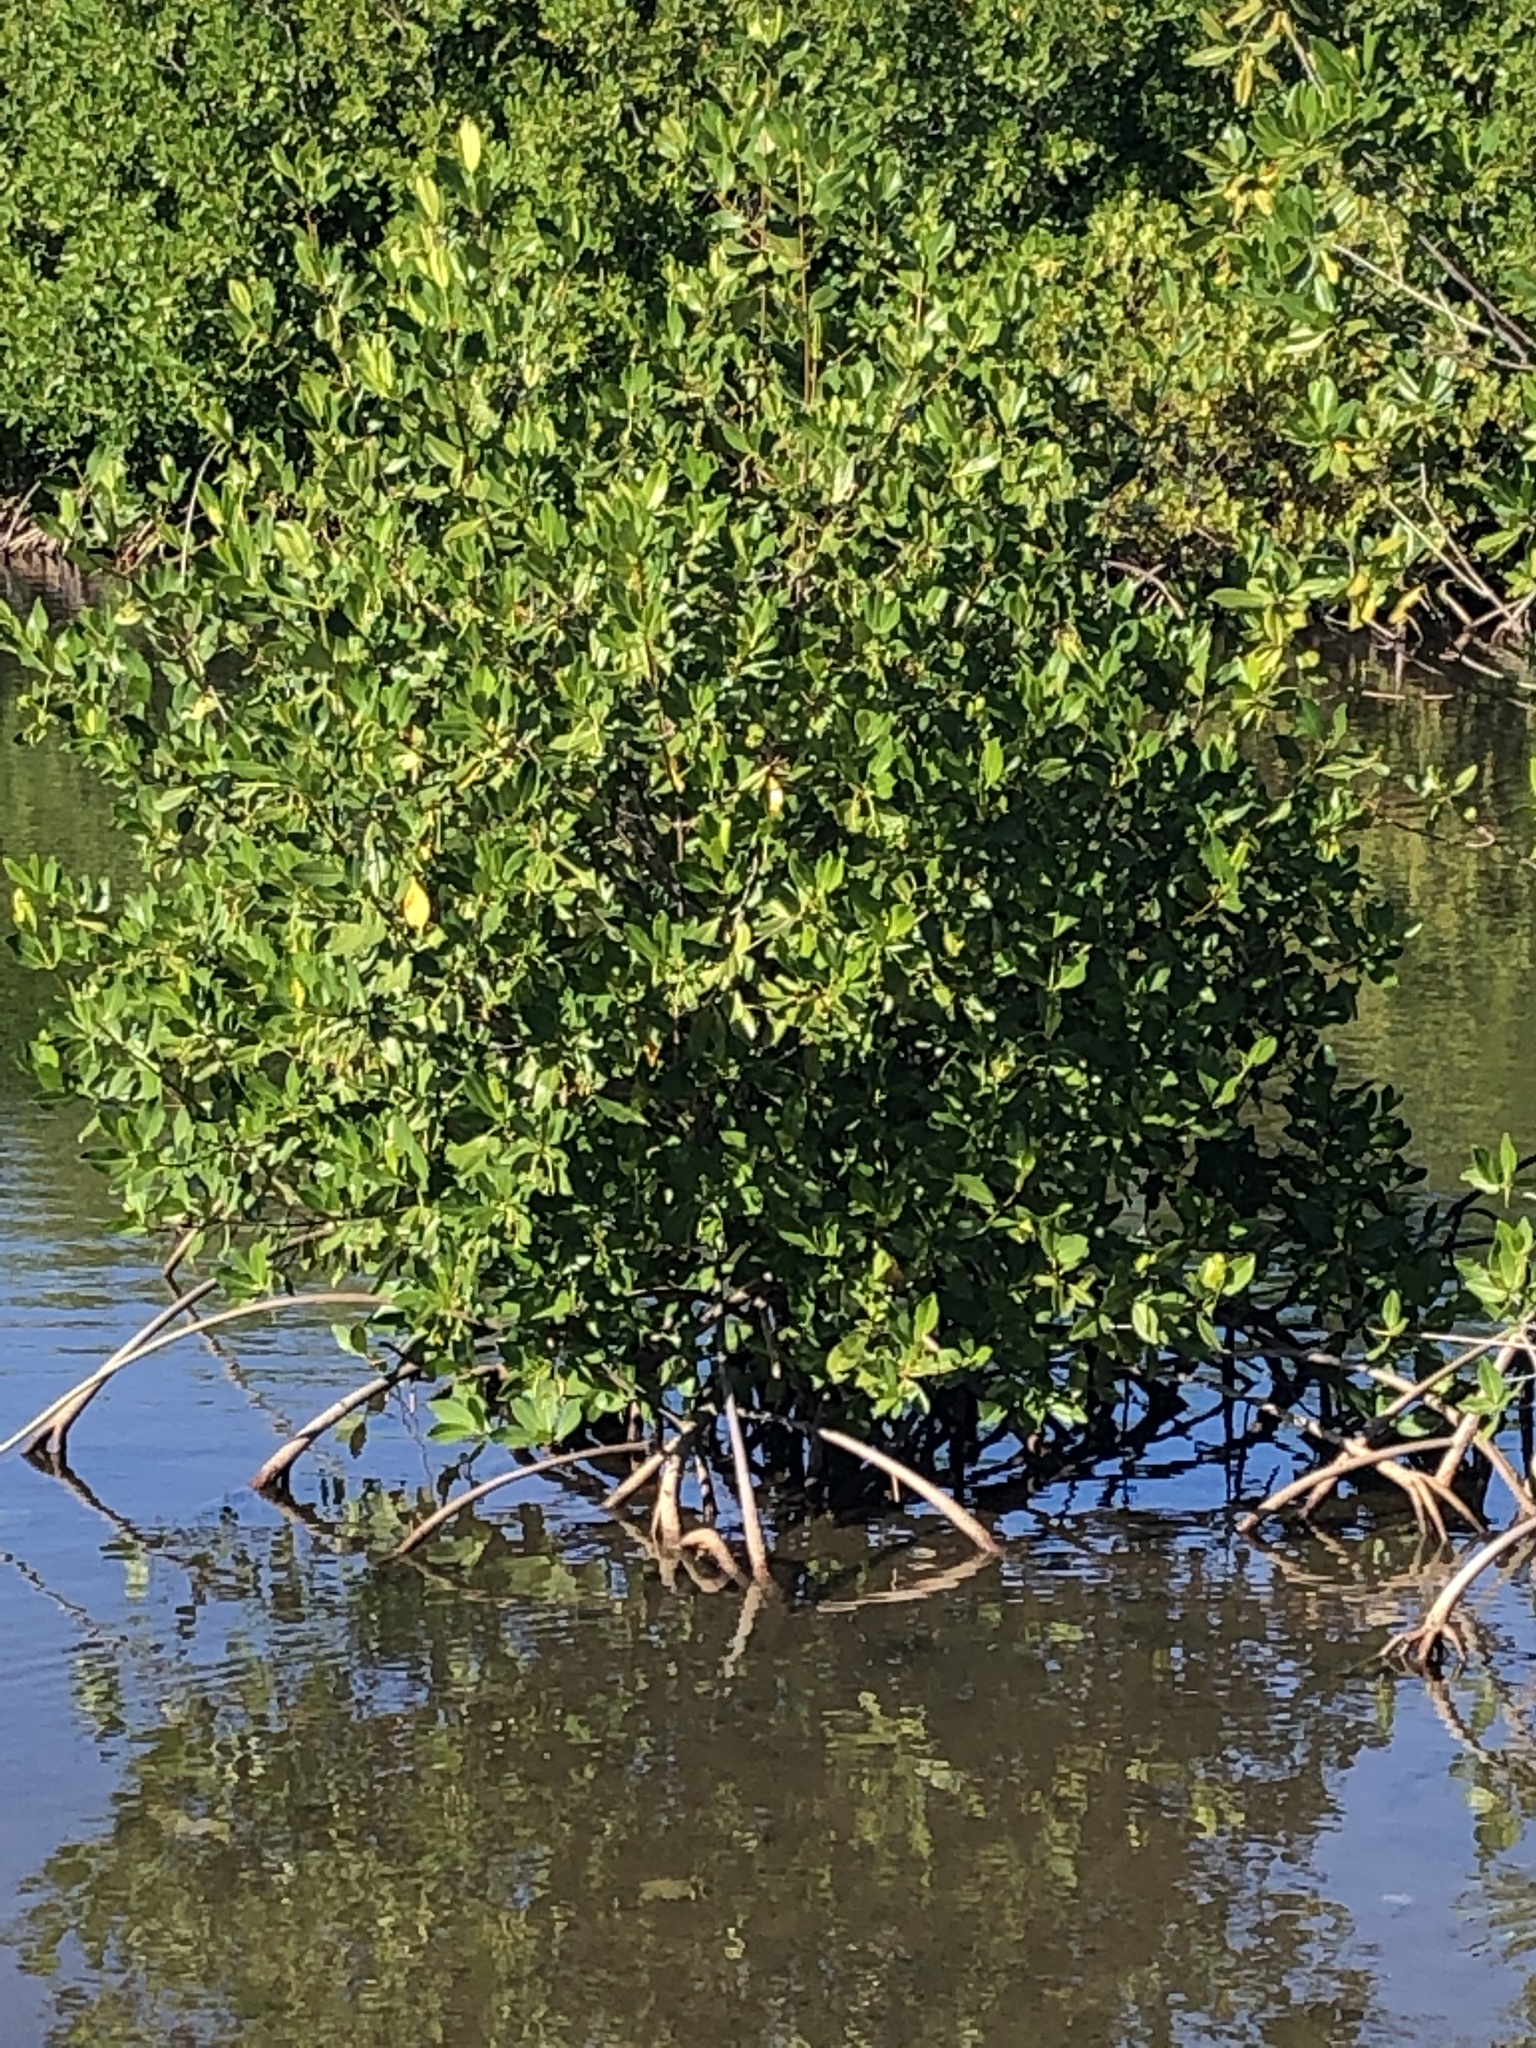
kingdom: Plantae
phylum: Tracheophyta
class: Magnoliopsida
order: Malpighiales
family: Rhizophoraceae
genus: Rhizophora
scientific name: Rhizophora mangle
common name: Red mangrove
